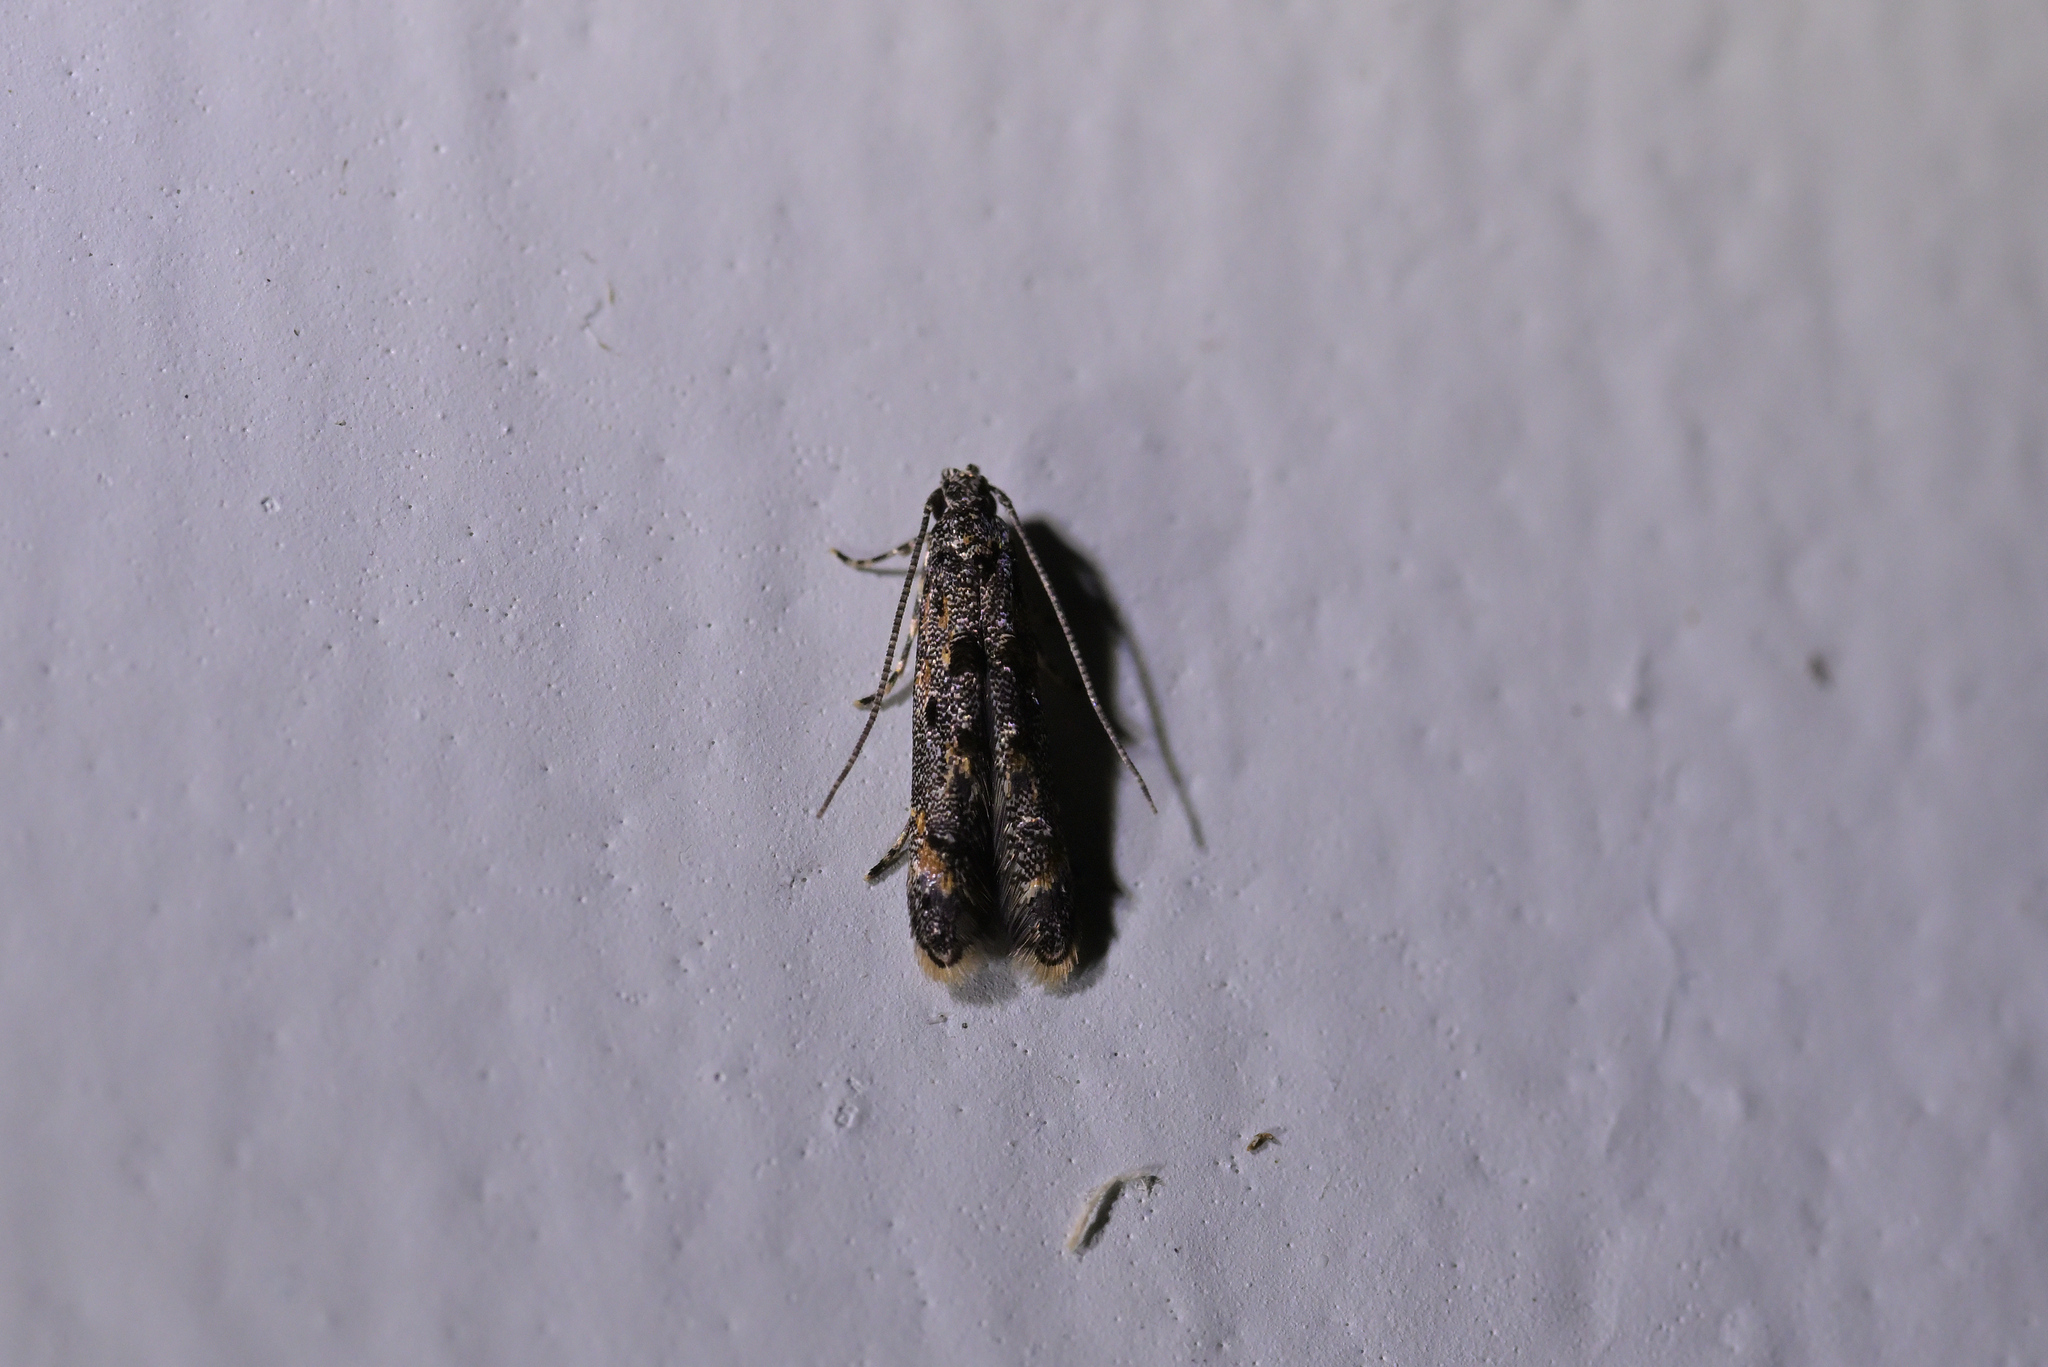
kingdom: Animalia
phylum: Arthropoda
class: Insecta
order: Lepidoptera
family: Elachistidae
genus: Microcolona
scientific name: Microcolona
